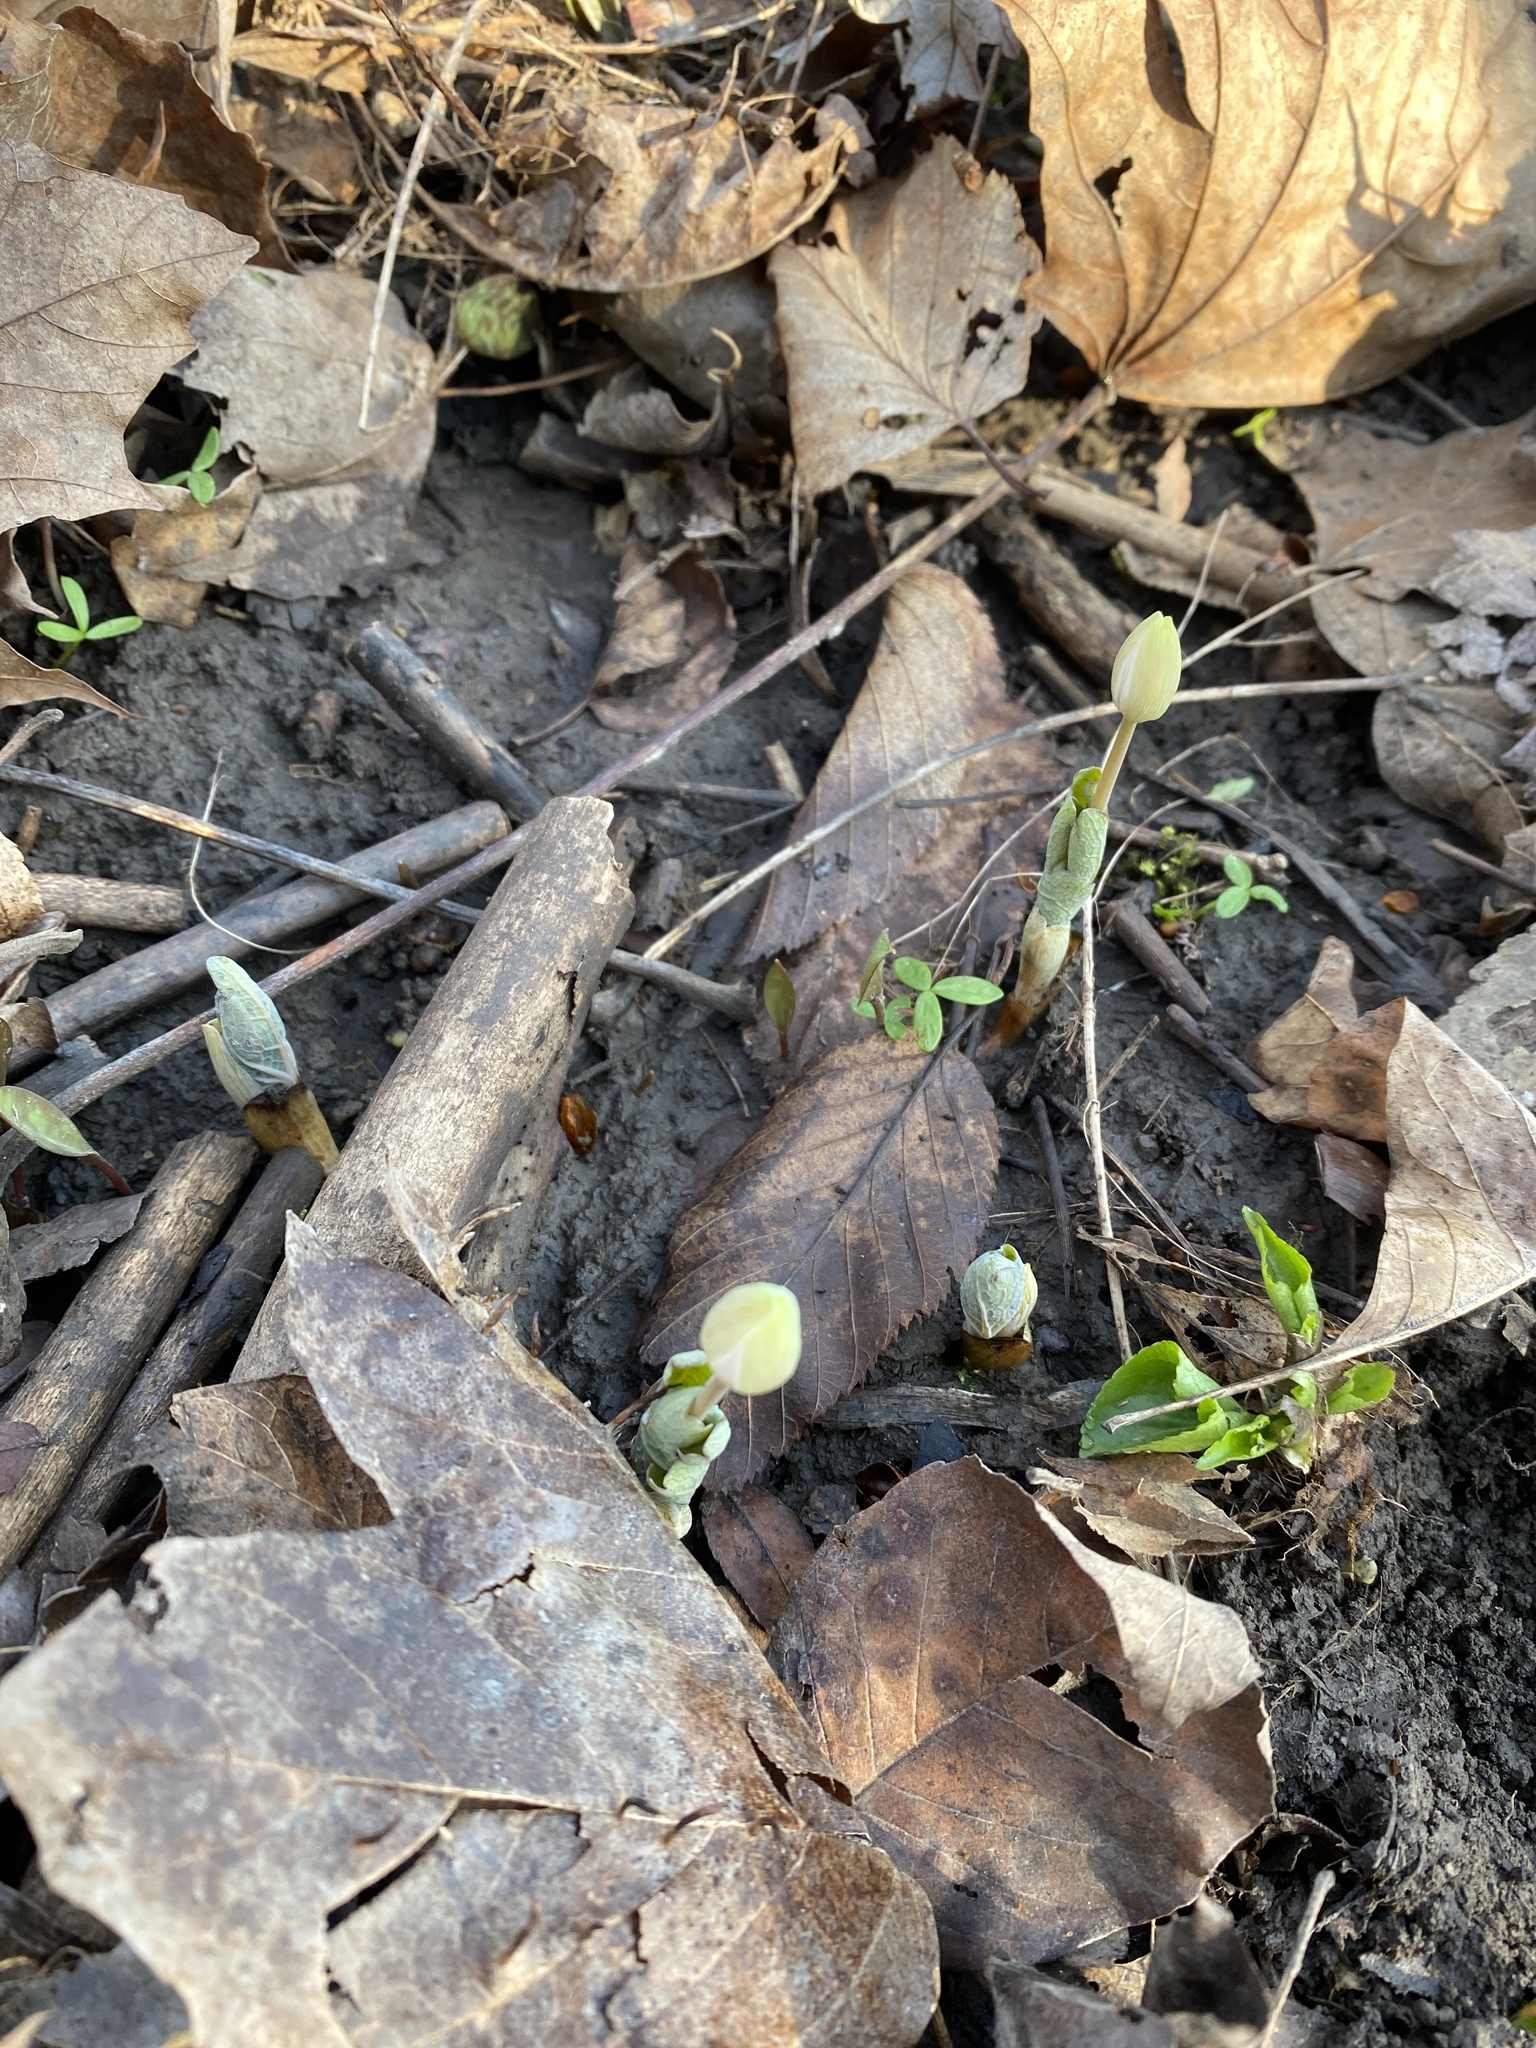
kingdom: Plantae
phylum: Tracheophyta
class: Magnoliopsida
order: Ranunculales
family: Papaveraceae
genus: Sanguinaria
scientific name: Sanguinaria canadensis
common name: Bloodroot
